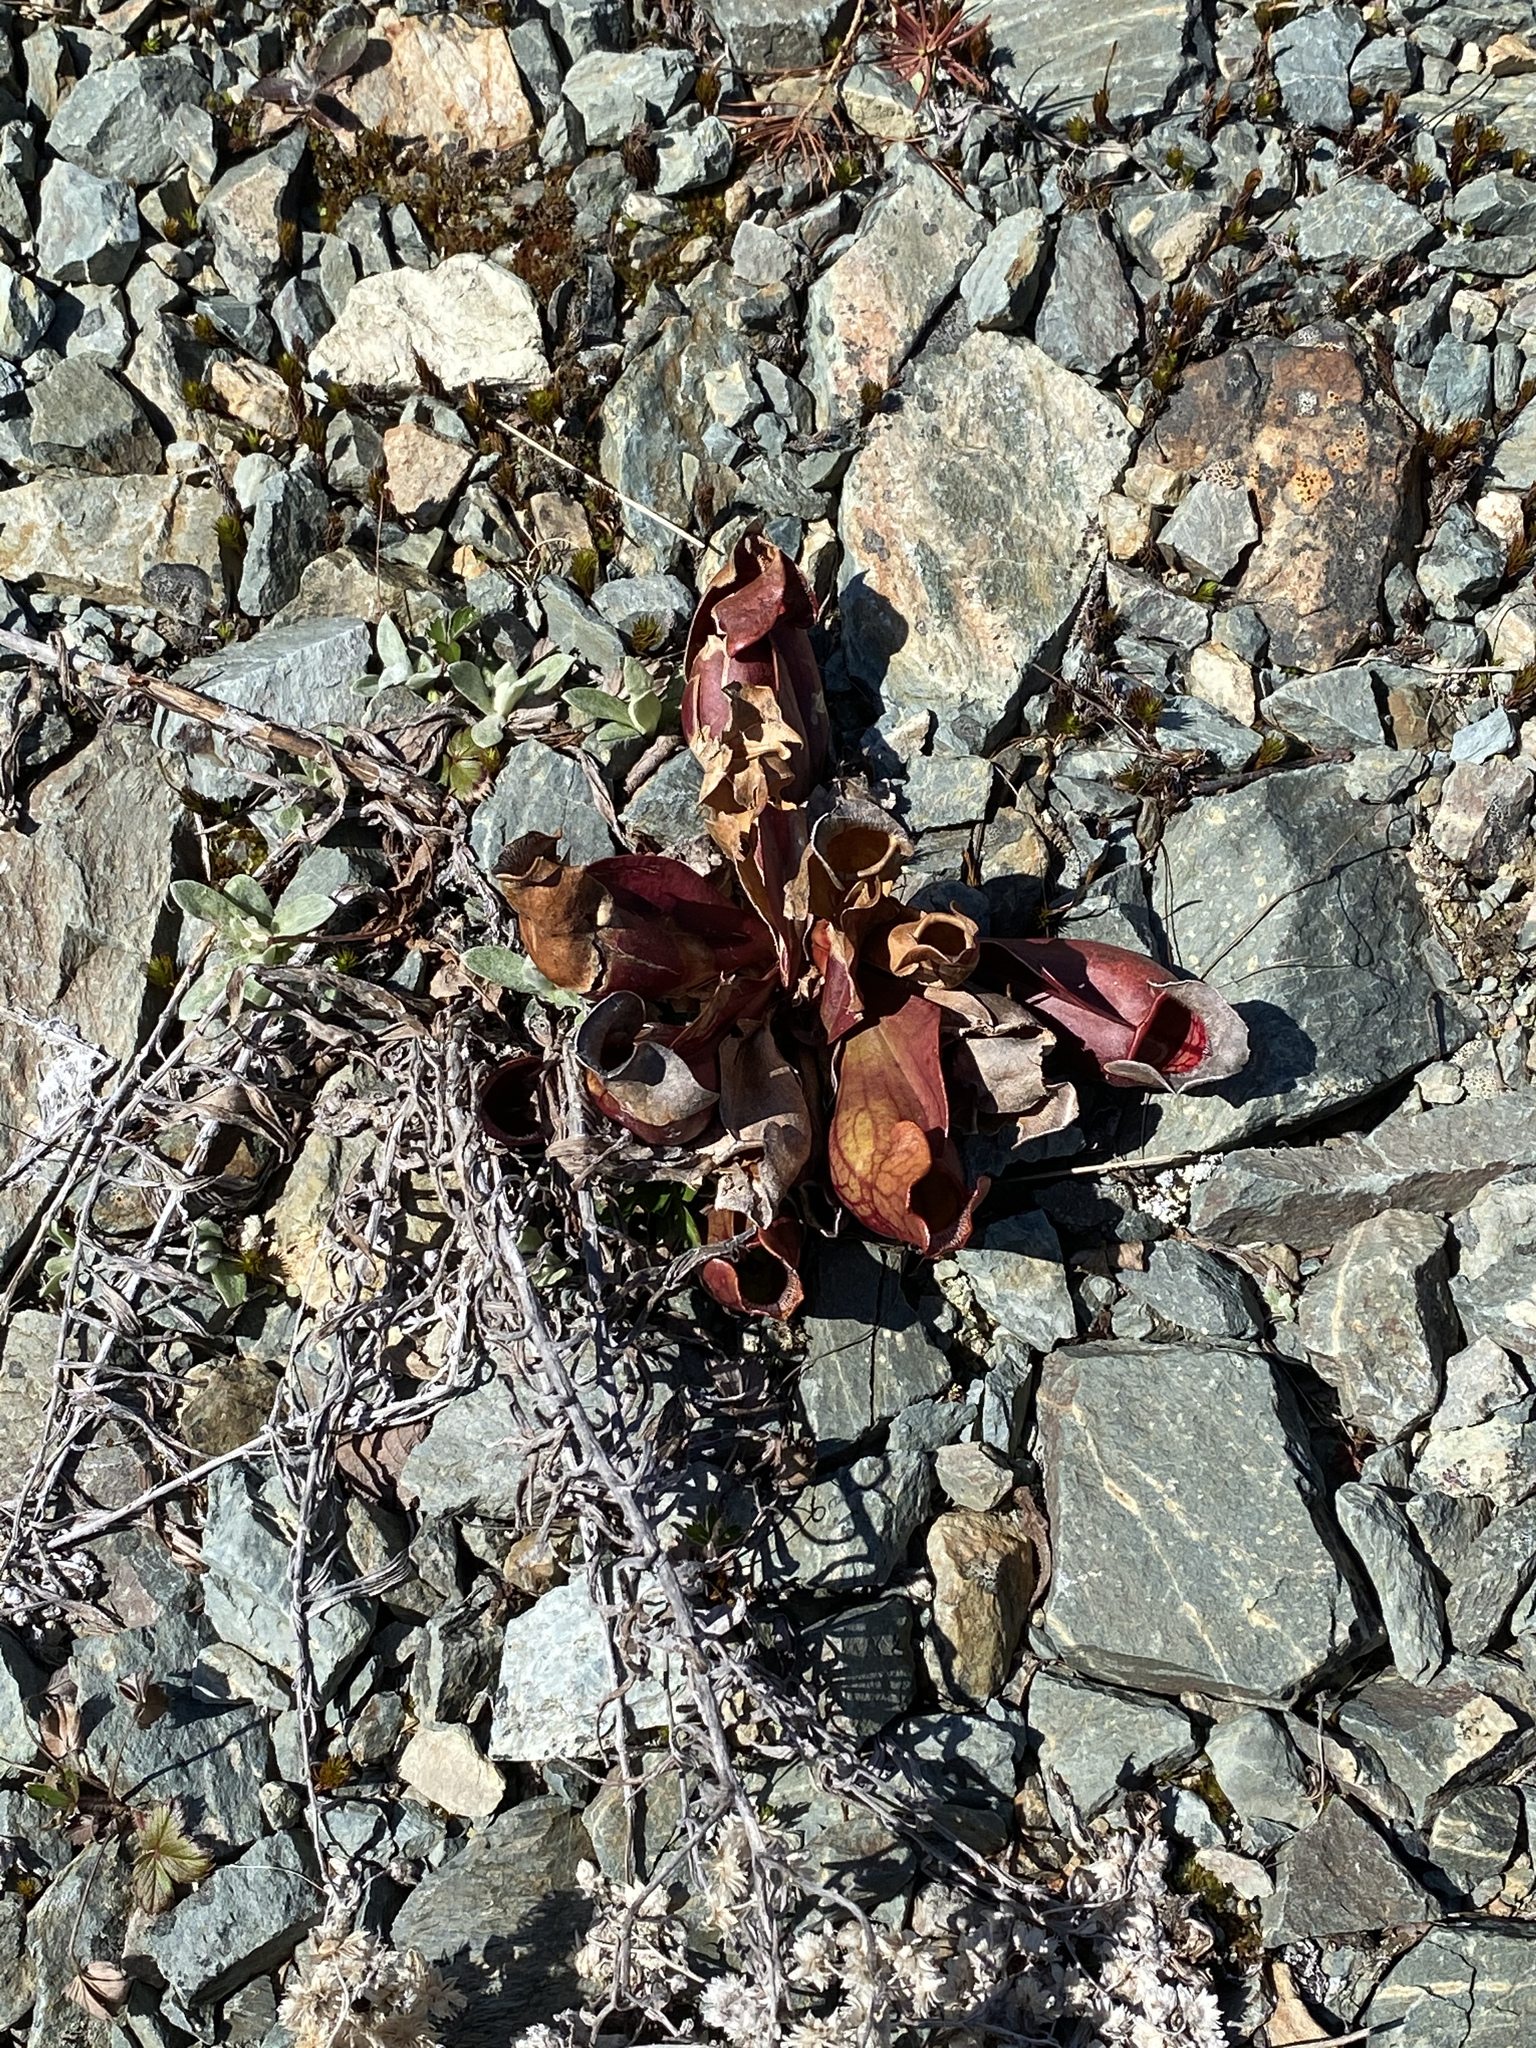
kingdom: Plantae
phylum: Tracheophyta
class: Magnoliopsida
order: Ericales
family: Sarraceniaceae
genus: Sarracenia
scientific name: Sarracenia purpurea
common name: Pitcherplant
